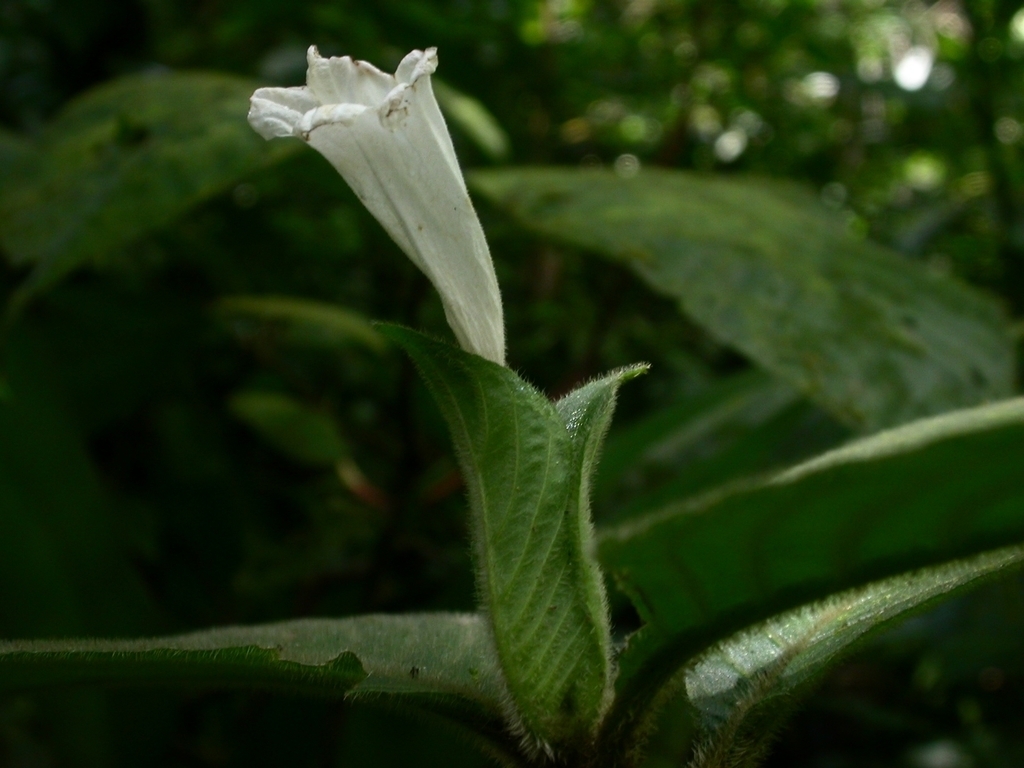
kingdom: Plantae
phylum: Tracheophyta
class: Magnoliopsida
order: Lamiales
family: Acanthaceae
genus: Ruellia
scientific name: Ruellia leonardiana
